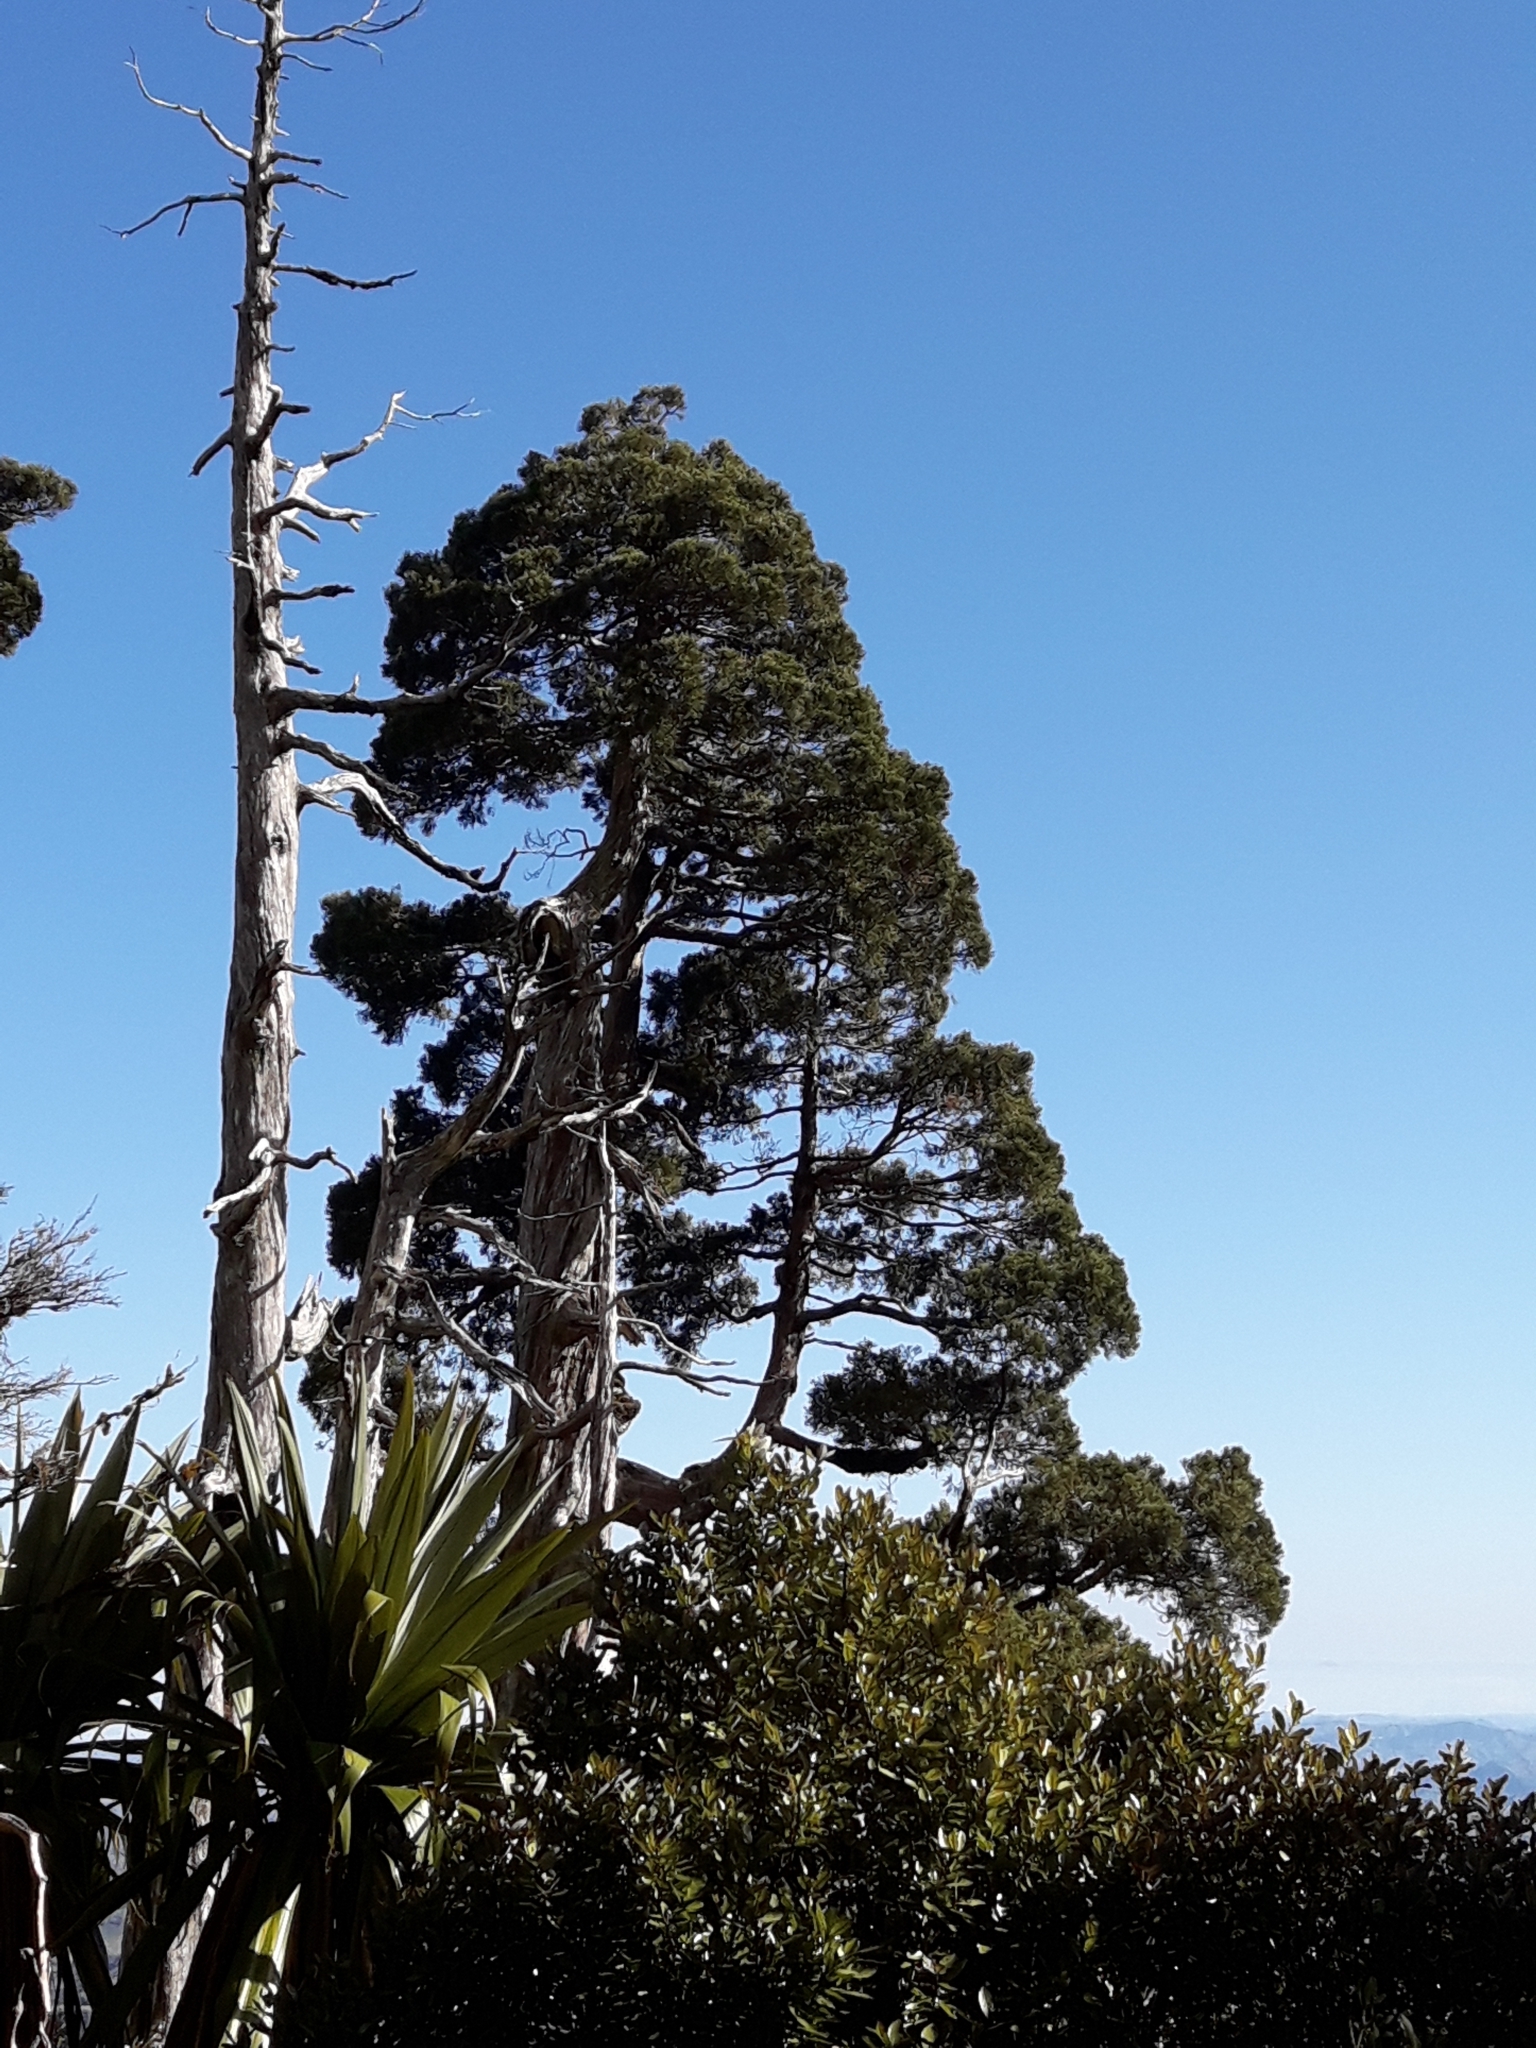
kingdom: Plantae
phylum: Tracheophyta
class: Pinopsida
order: Pinales
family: Cupressaceae
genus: Libocedrus
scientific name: Libocedrus bidwillii
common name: Cedar
